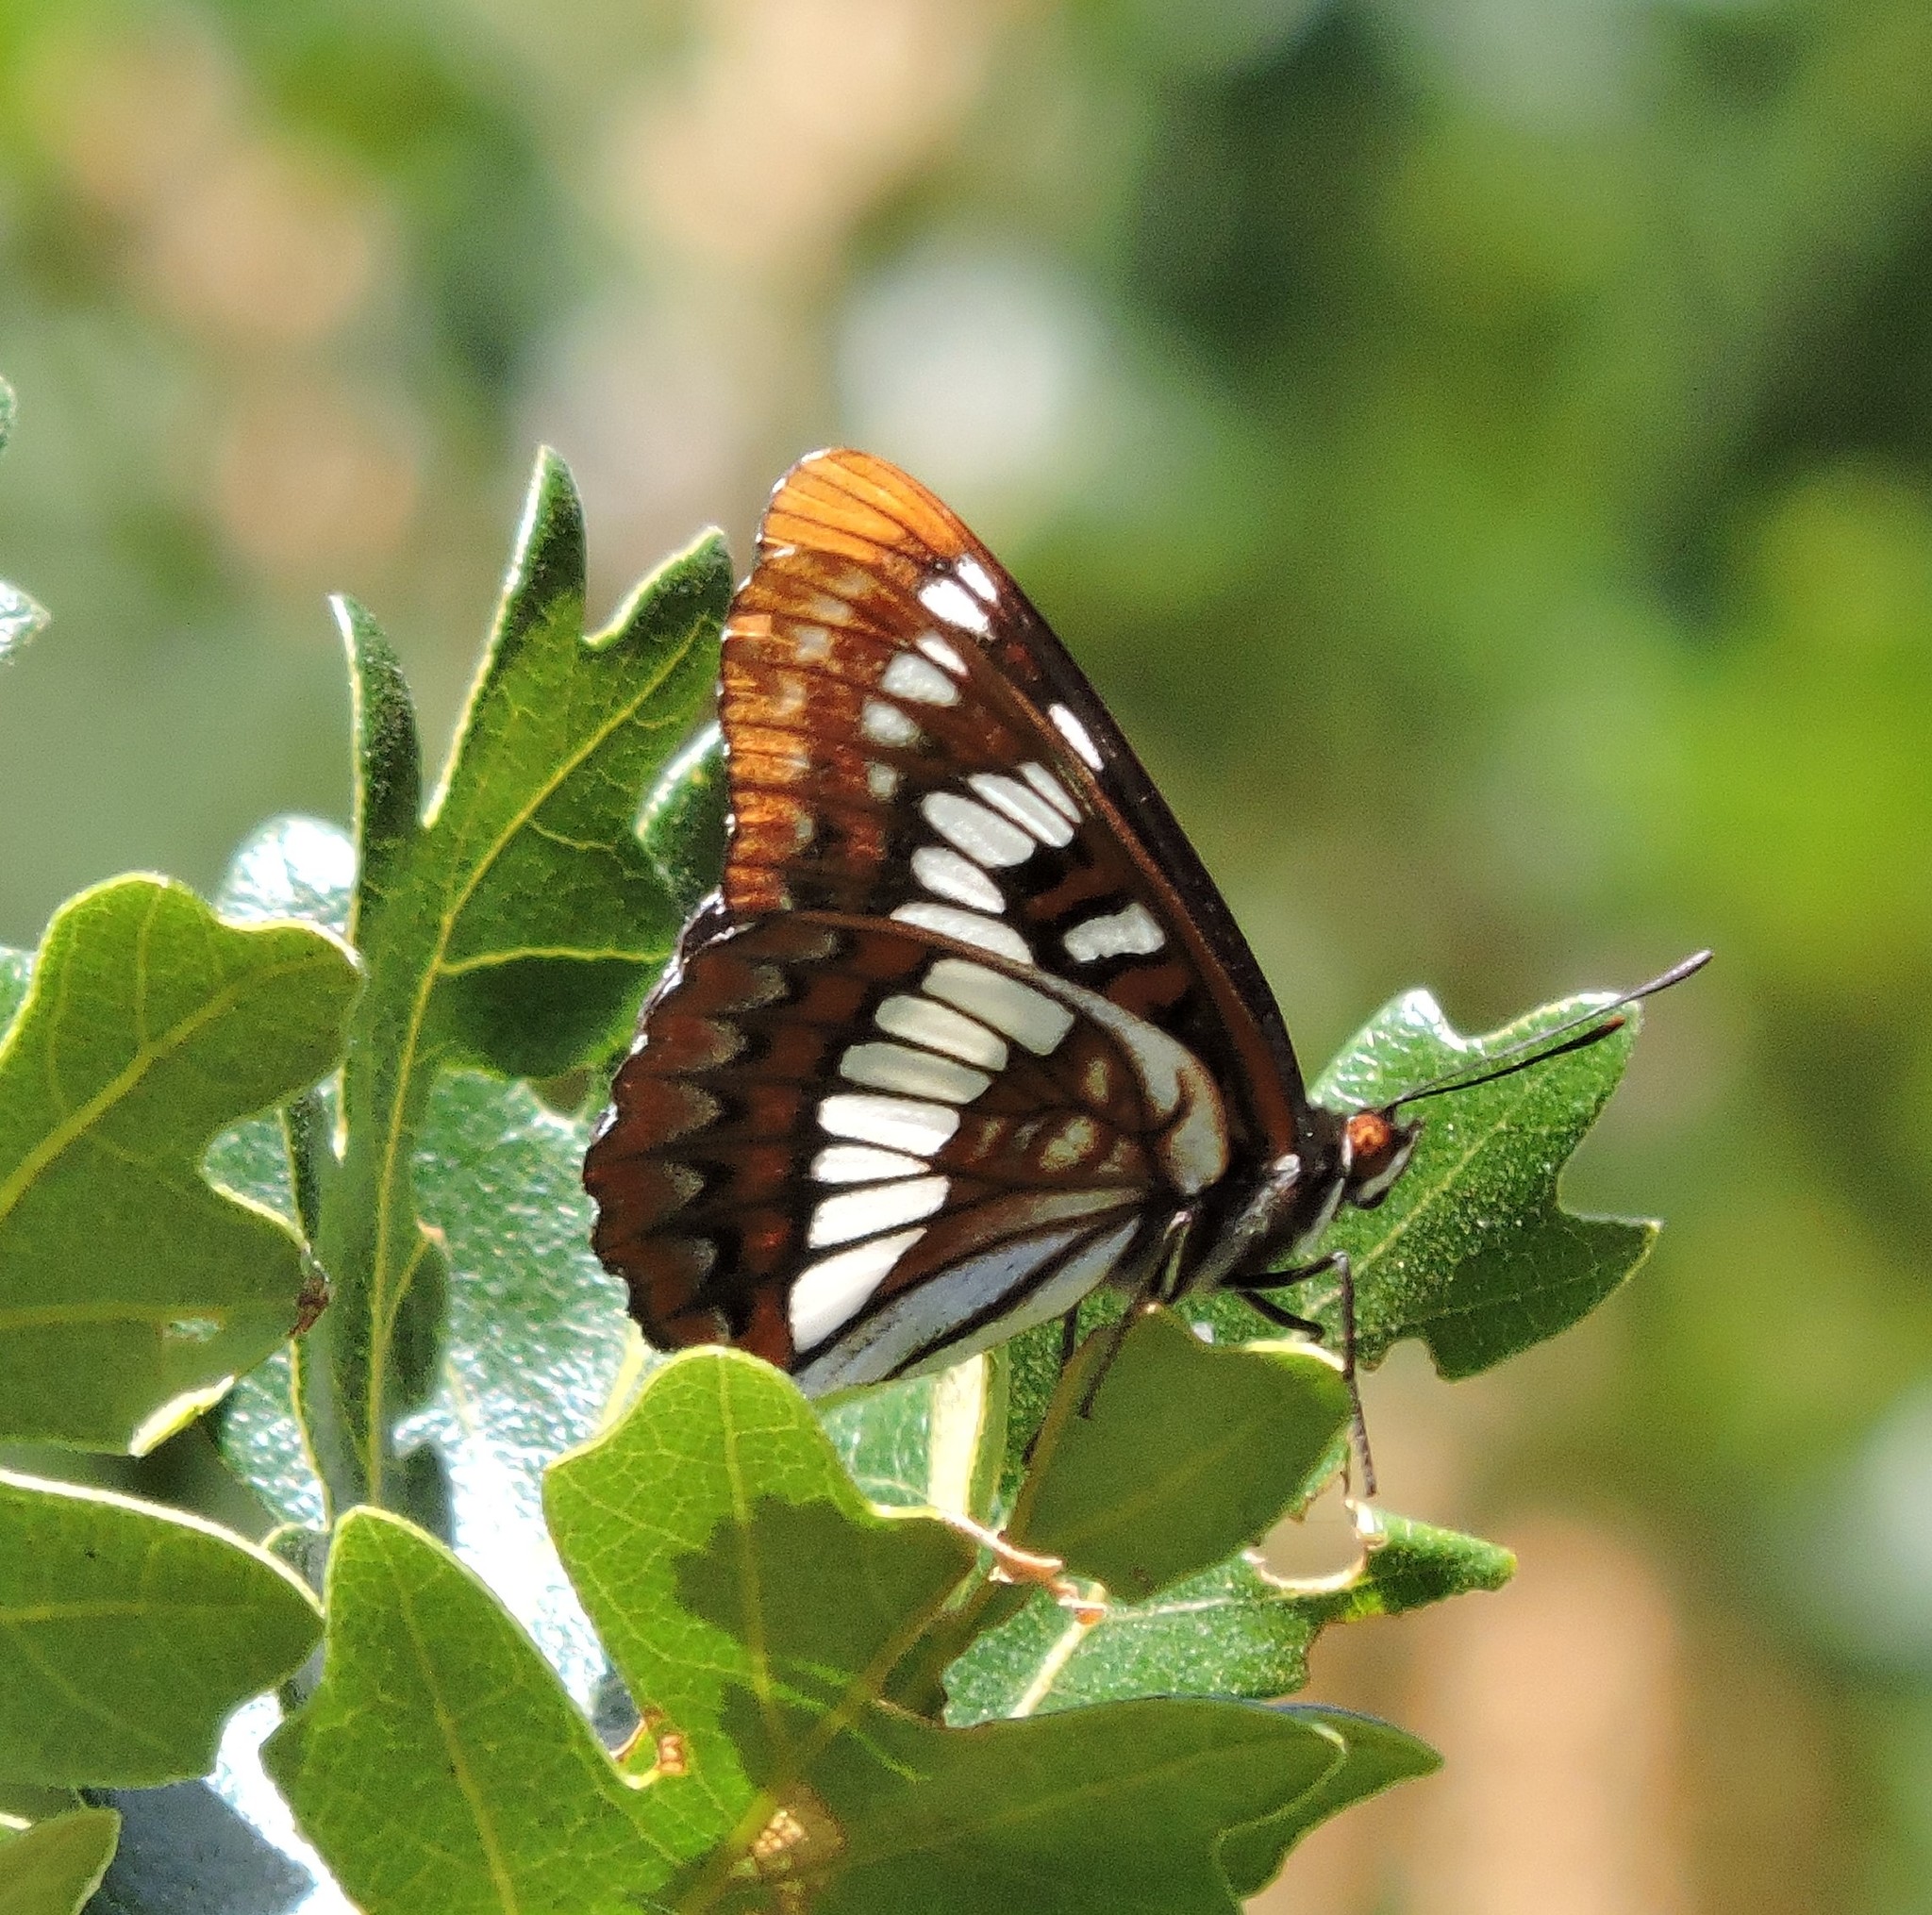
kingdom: Animalia
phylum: Arthropoda
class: Insecta
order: Lepidoptera
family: Nymphalidae
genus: Limenitis
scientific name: Limenitis lorquini
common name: Lorquin's admiral
